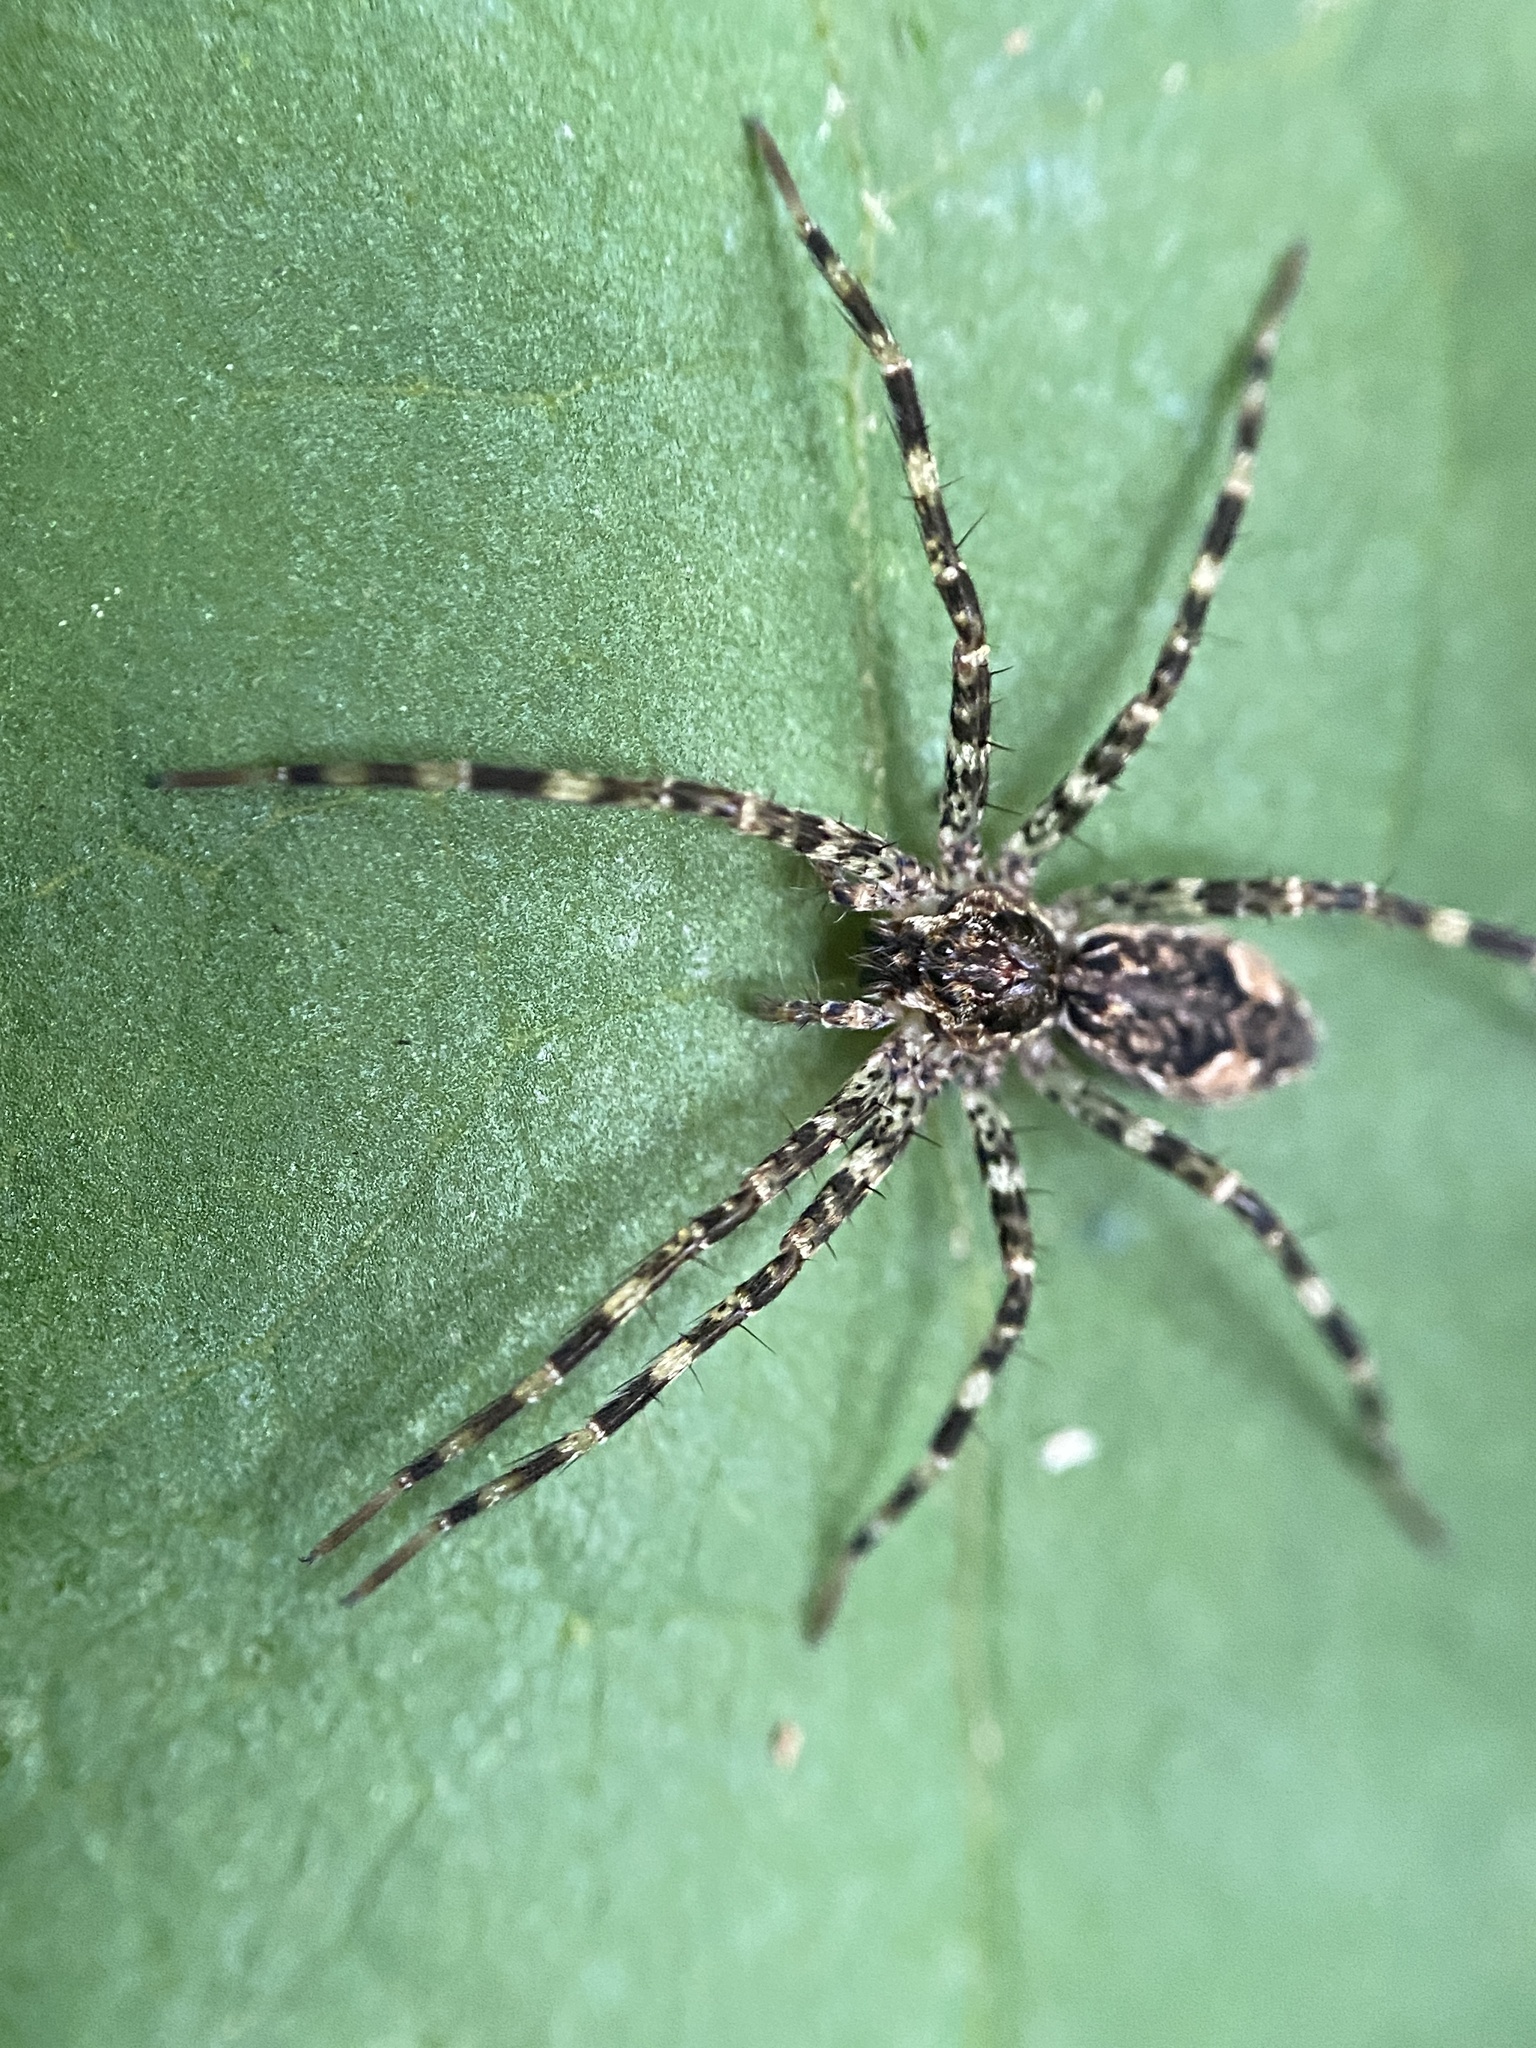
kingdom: Animalia
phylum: Arthropoda
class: Arachnida
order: Araneae
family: Pisauridae
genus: Dolomedes
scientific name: Dolomedes tenebrosus
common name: Dark fishing spider
